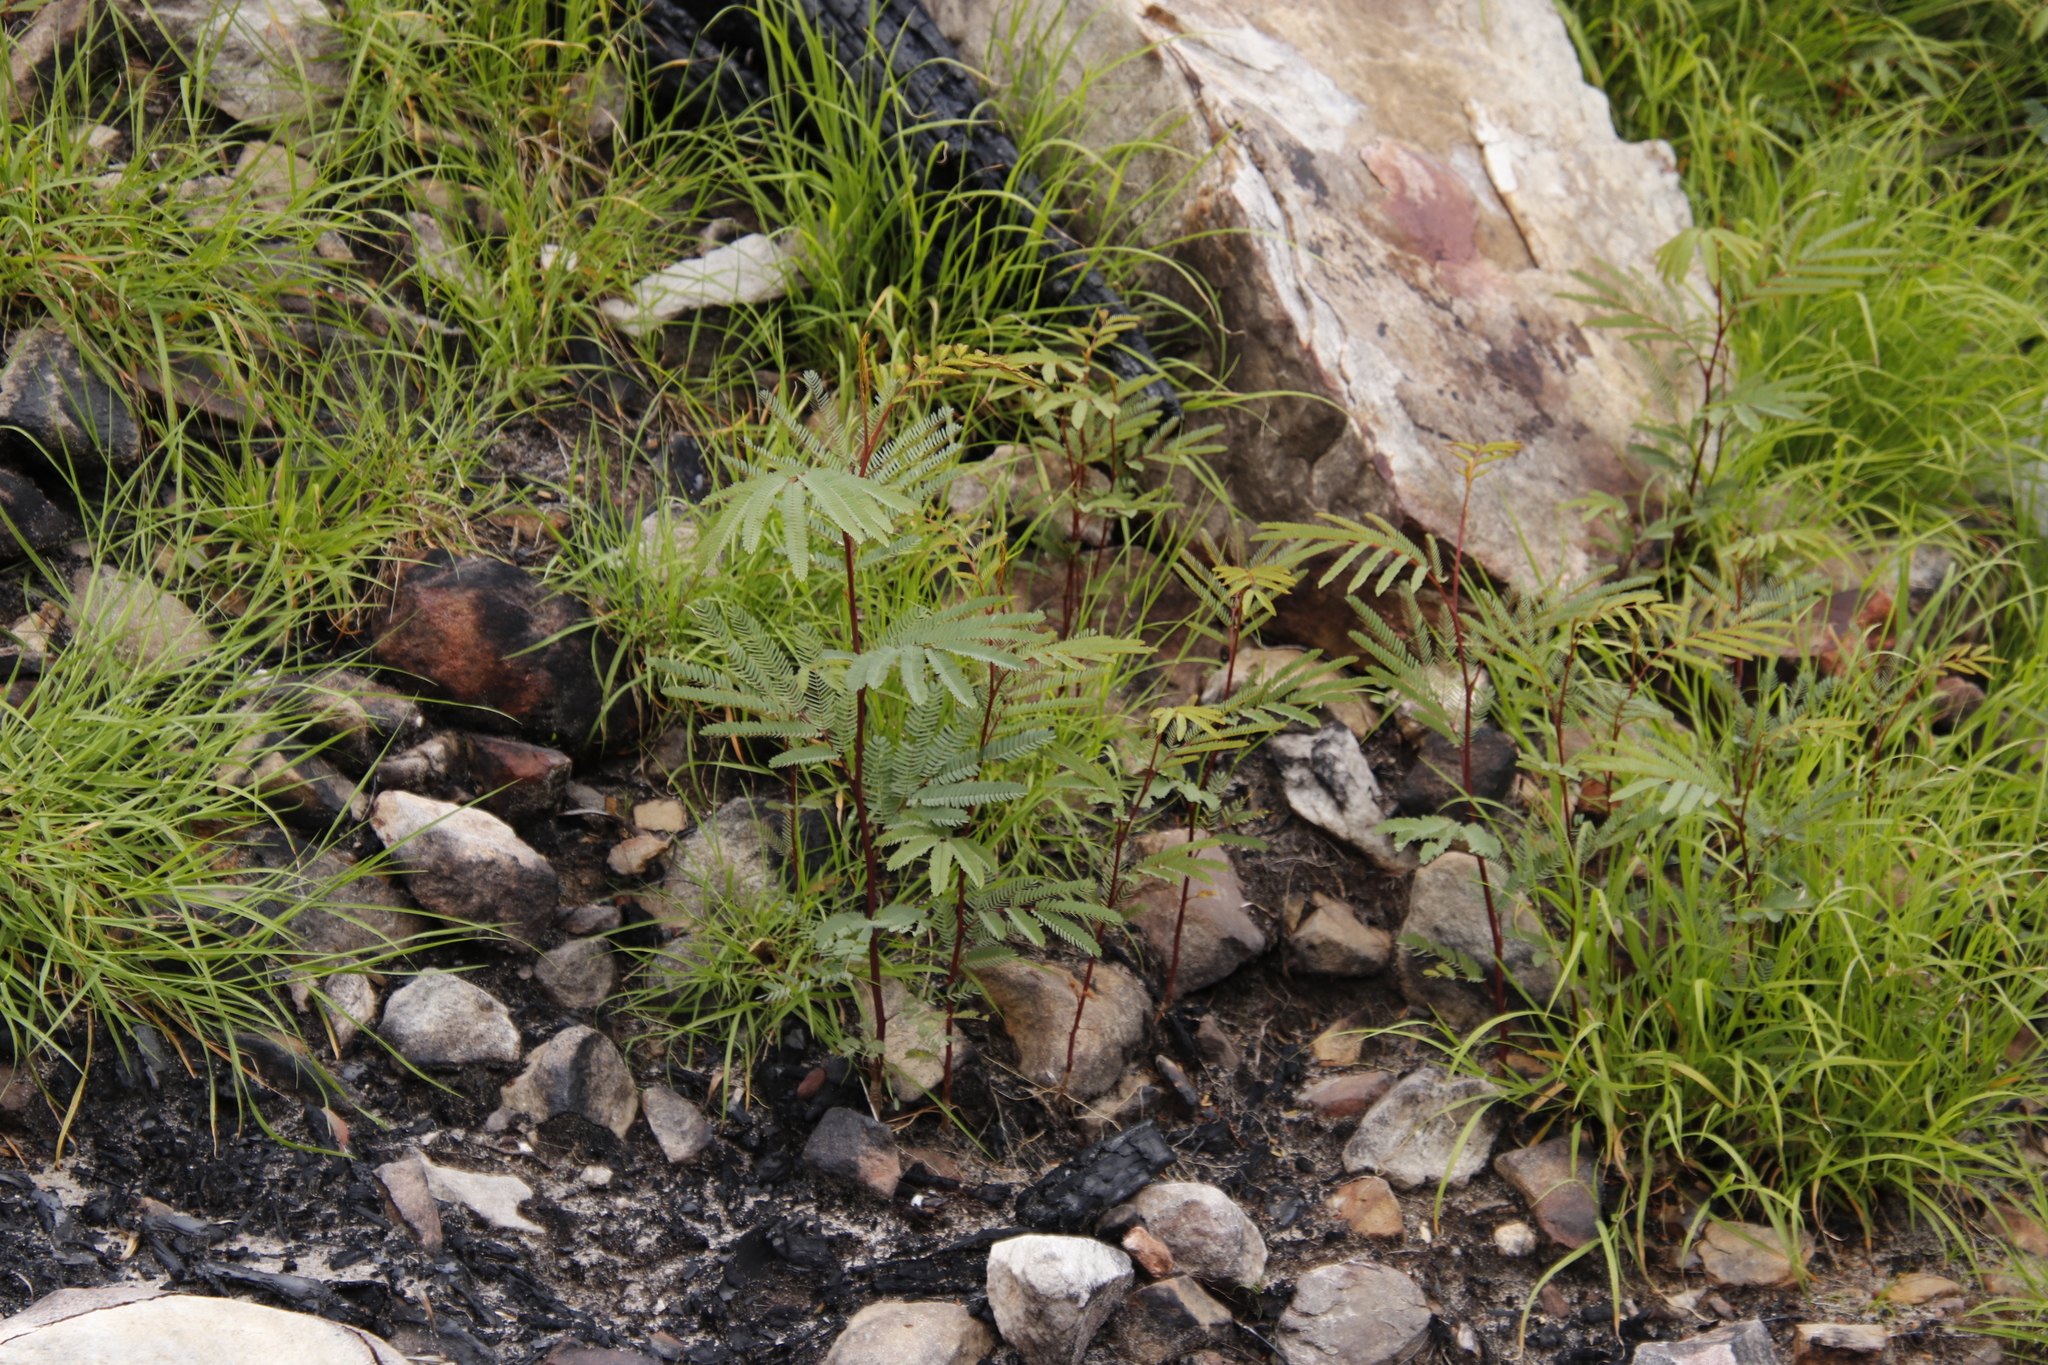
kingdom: Plantae
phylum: Tracheophyta
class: Magnoliopsida
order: Fabales
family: Fabaceae
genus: Paraserianthes
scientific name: Paraserianthes lophantha
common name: Plume albizia
